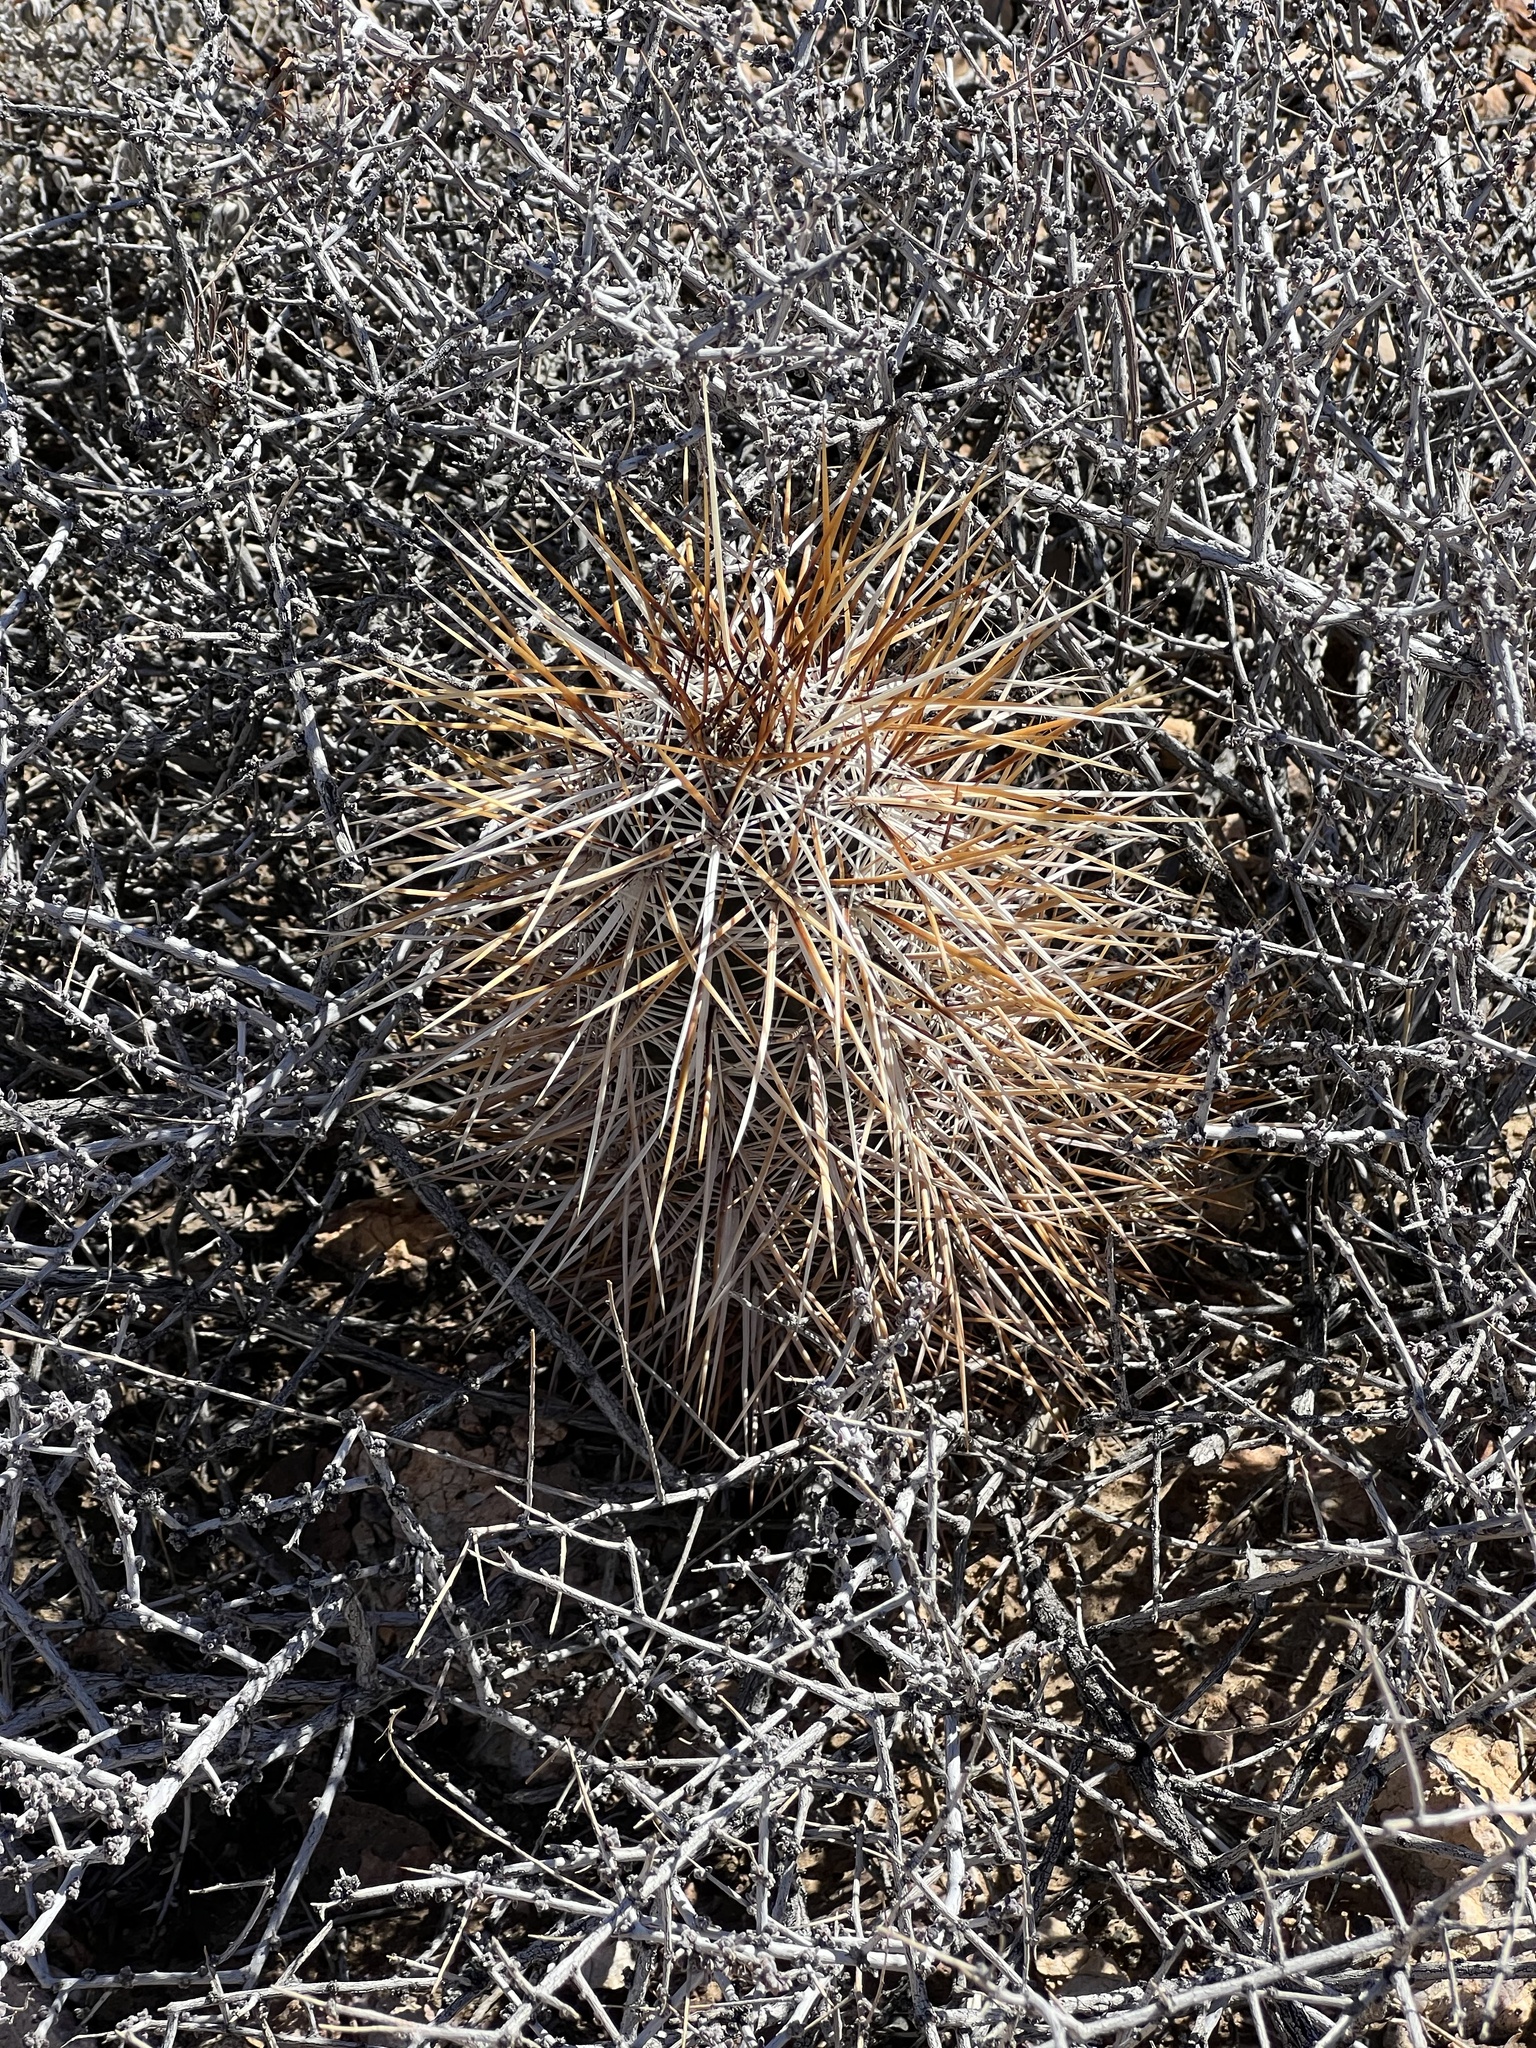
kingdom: Plantae
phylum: Tracheophyta
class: Magnoliopsida
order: Caryophyllales
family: Cactaceae
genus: Echinocereus
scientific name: Echinocereus engelmannii
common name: Engelmann's hedgehog cactus
